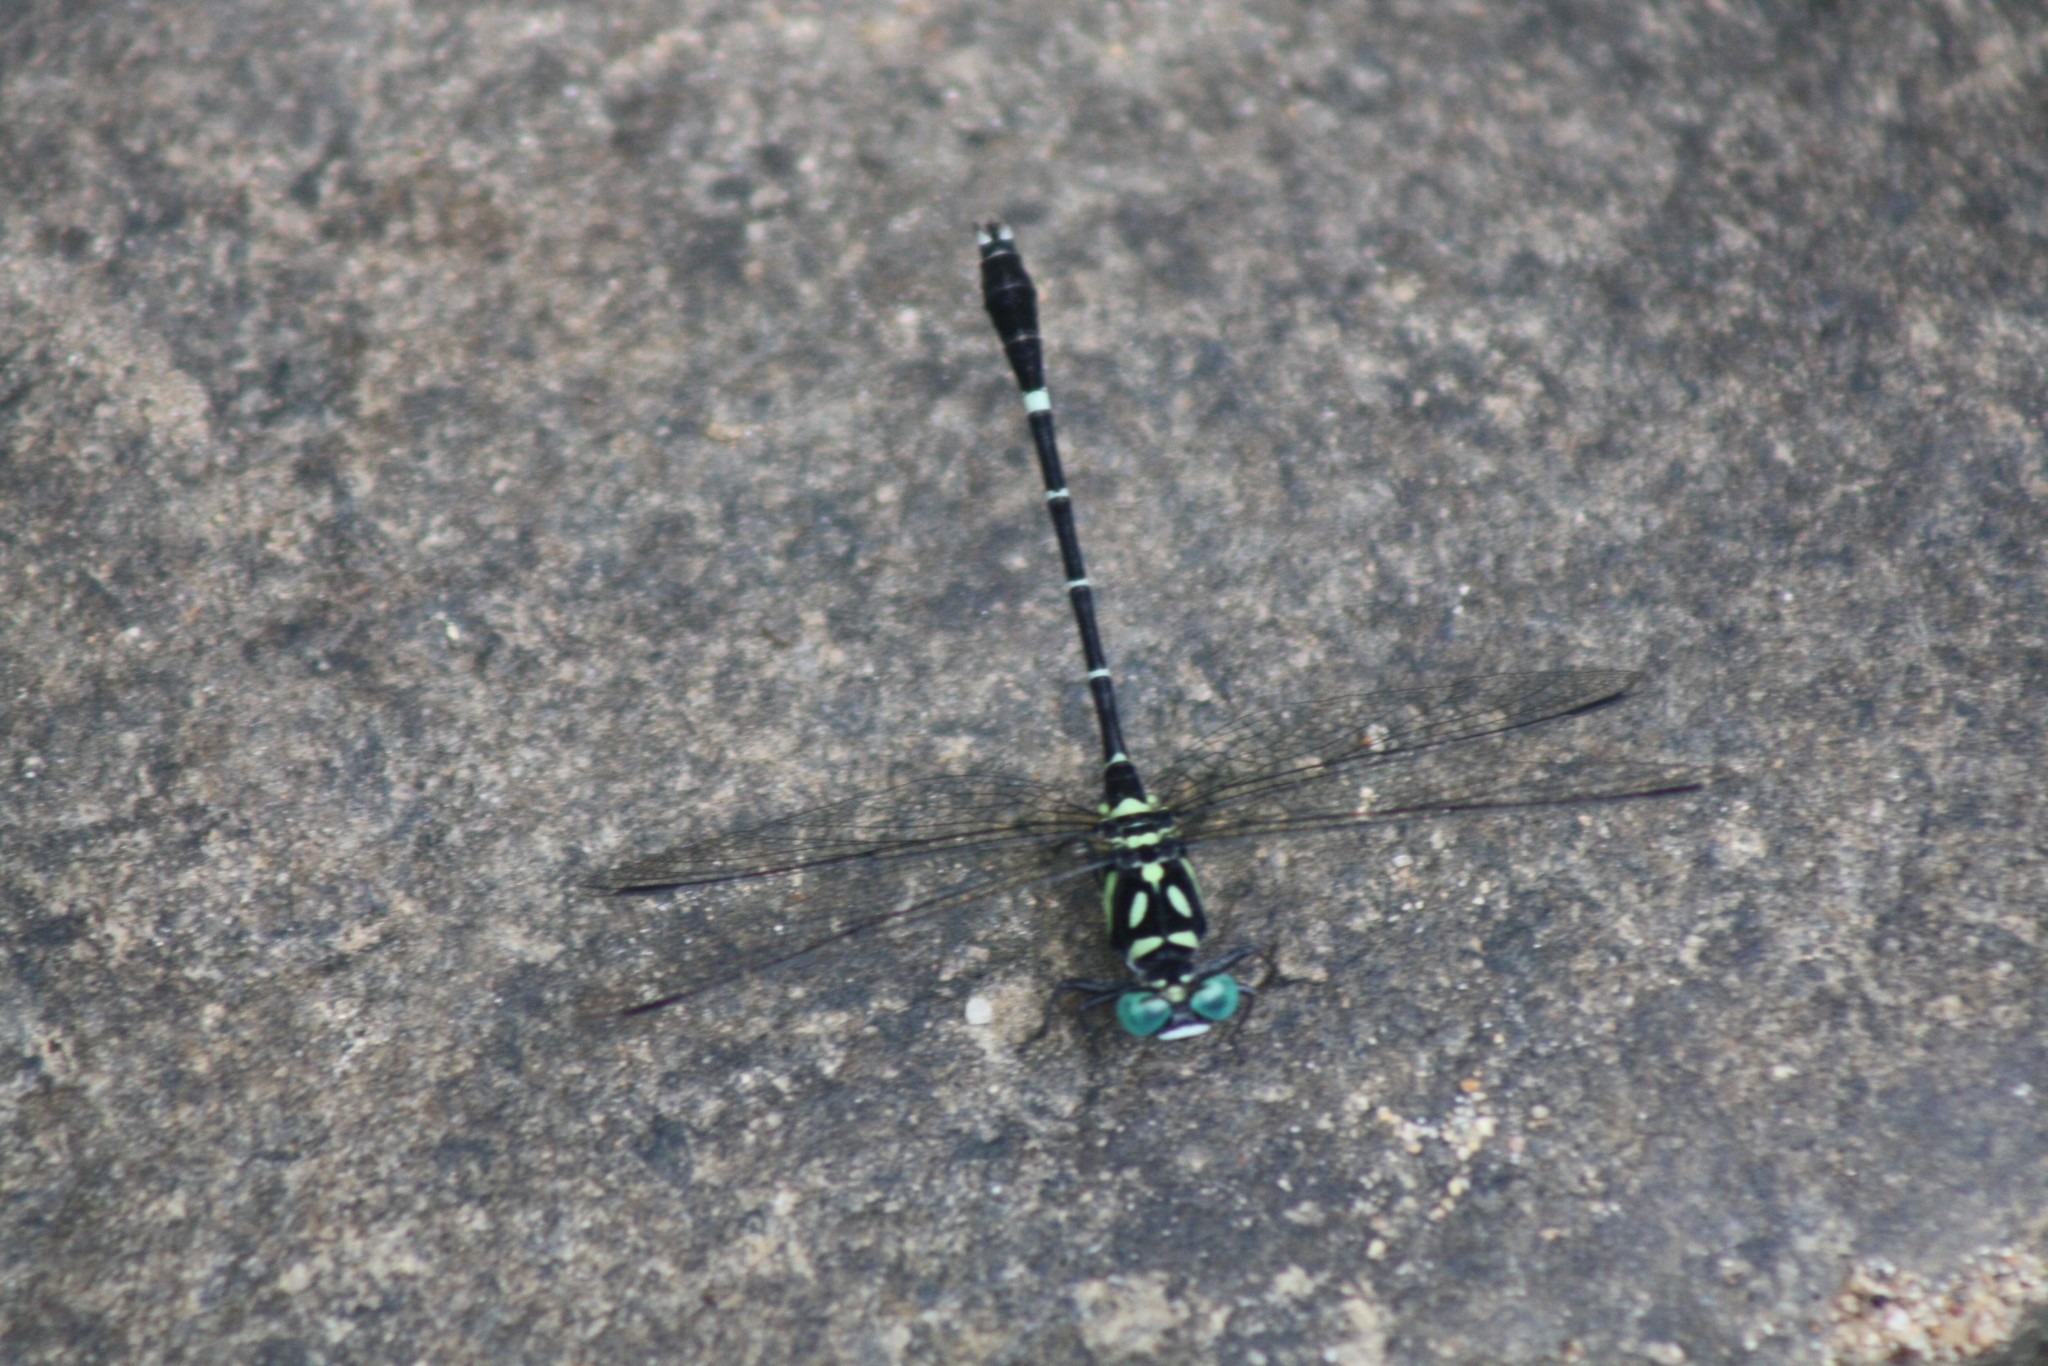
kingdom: Animalia
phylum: Arthropoda
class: Insecta
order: Odonata
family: Gomphidae
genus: Microgomphus
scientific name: Microgomphus souteri
